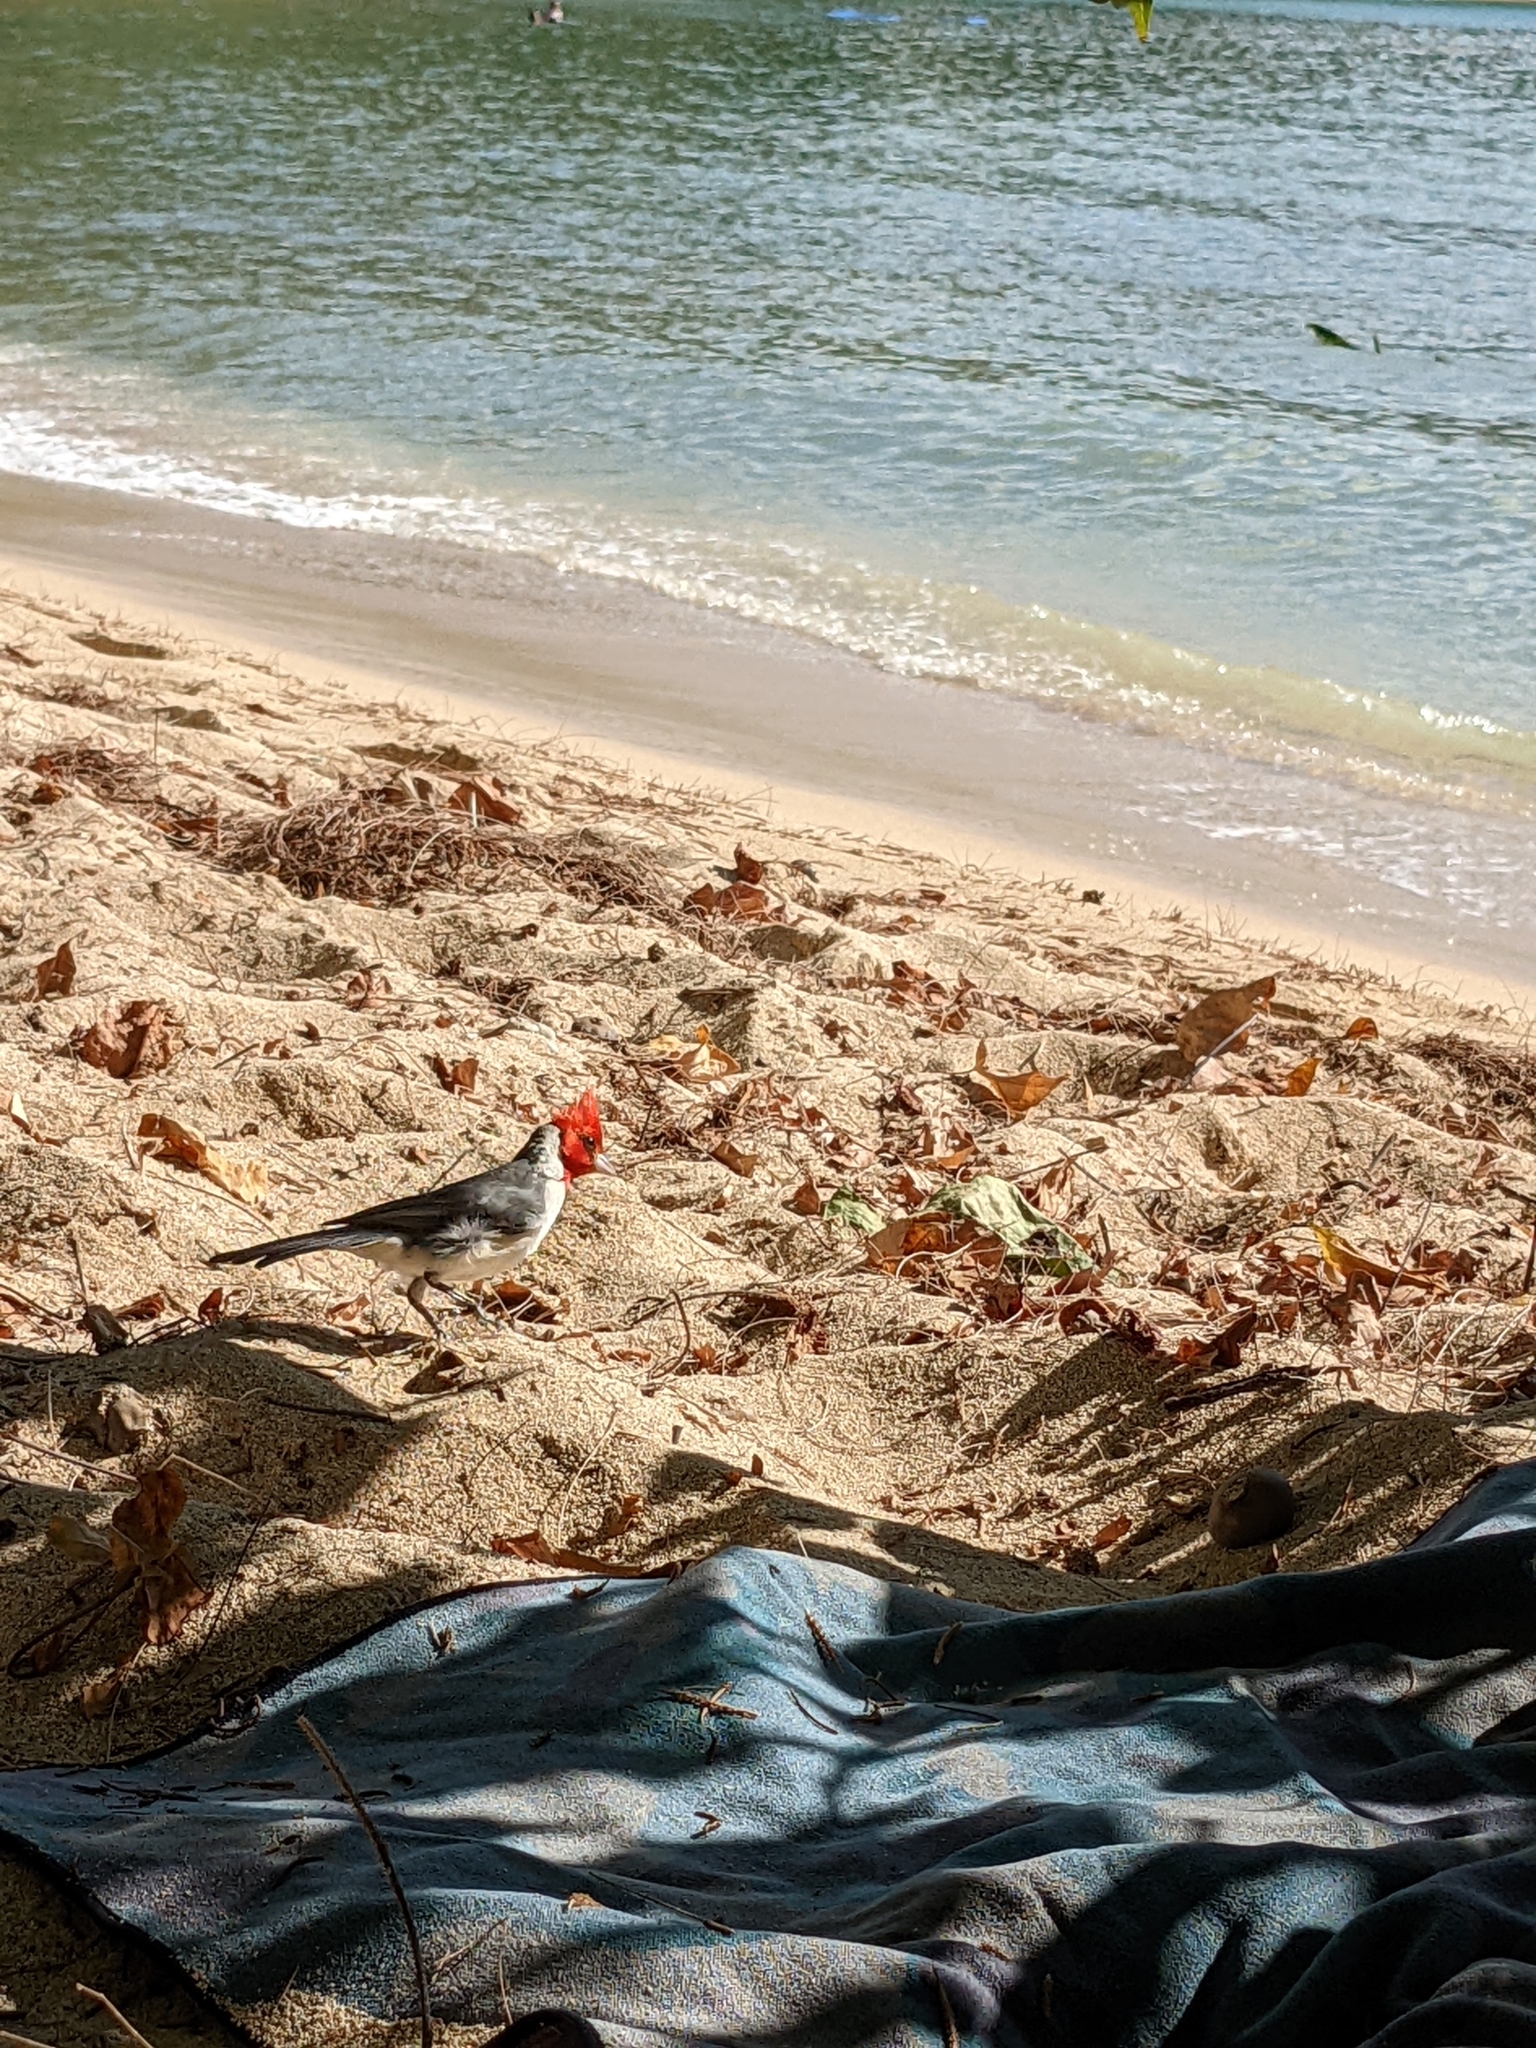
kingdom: Animalia
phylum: Chordata
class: Aves
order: Passeriformes
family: Thraupidae
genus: Paroaria
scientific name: Paroaria coronata
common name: Red-crested cardinal
